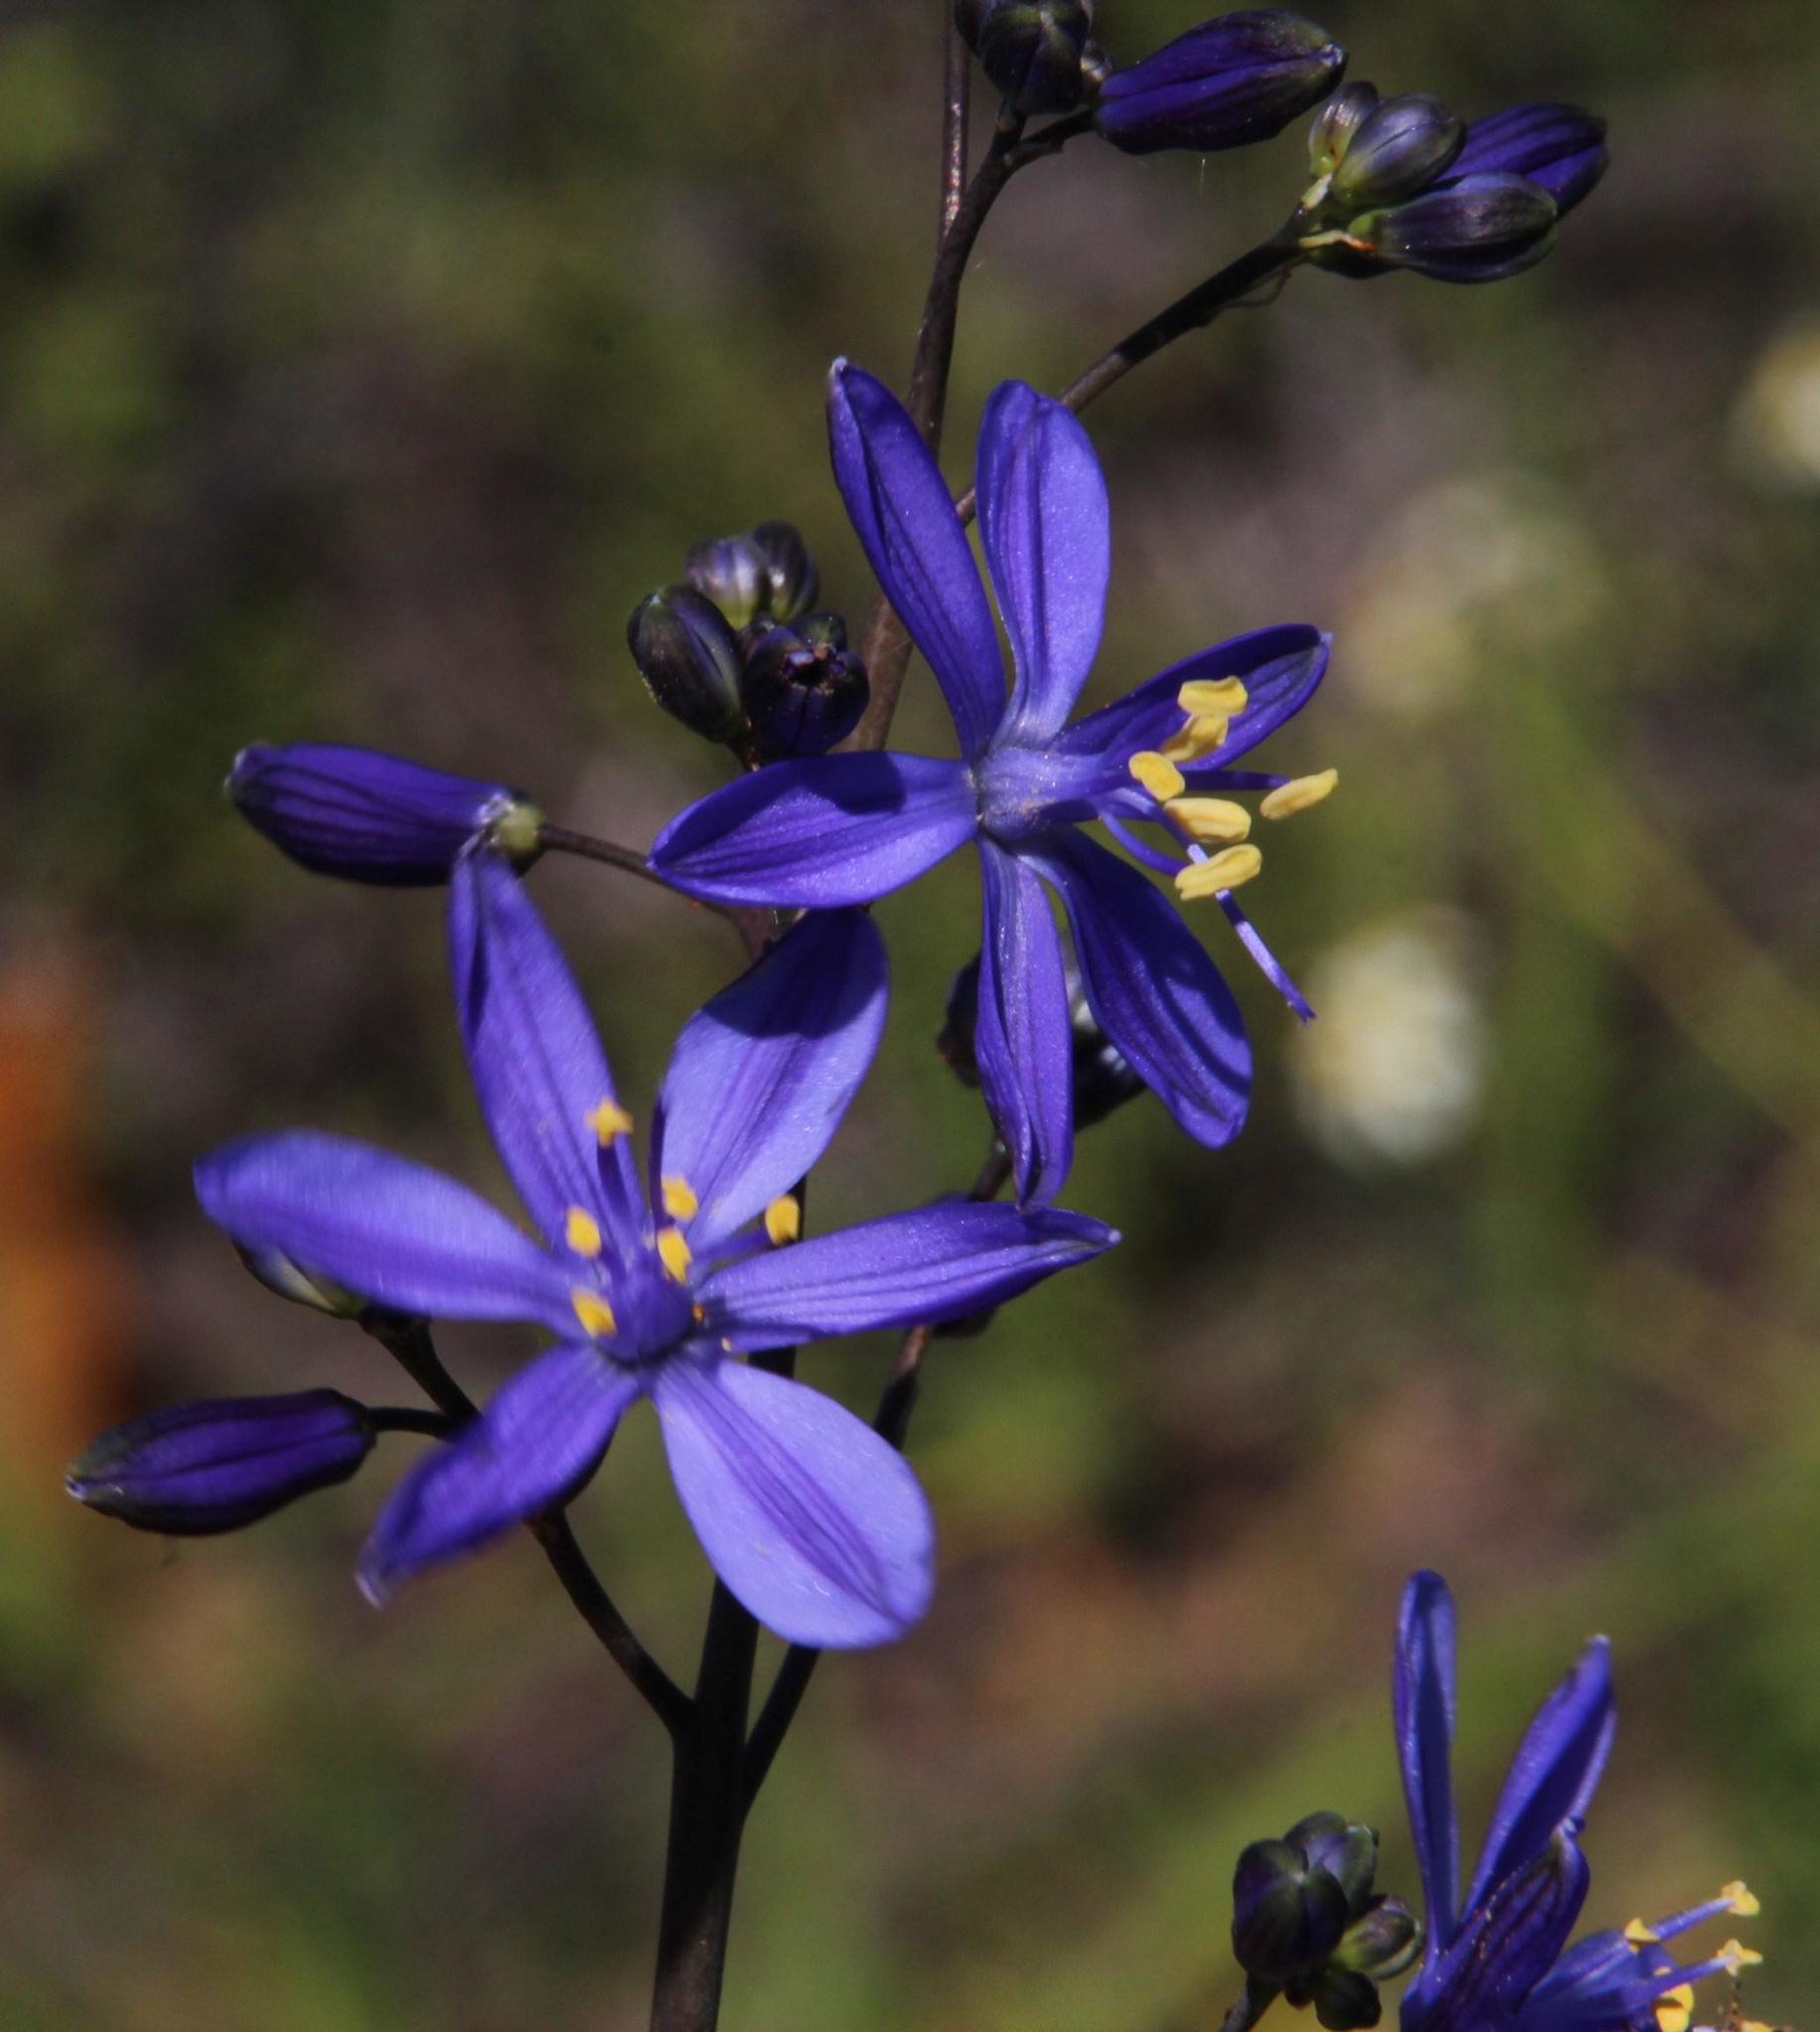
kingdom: Plantae
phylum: Tracheophyta
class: Liliopsida
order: Asparagales
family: Asphodelaceae
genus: Pasithea
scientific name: Pasithea caerulea
